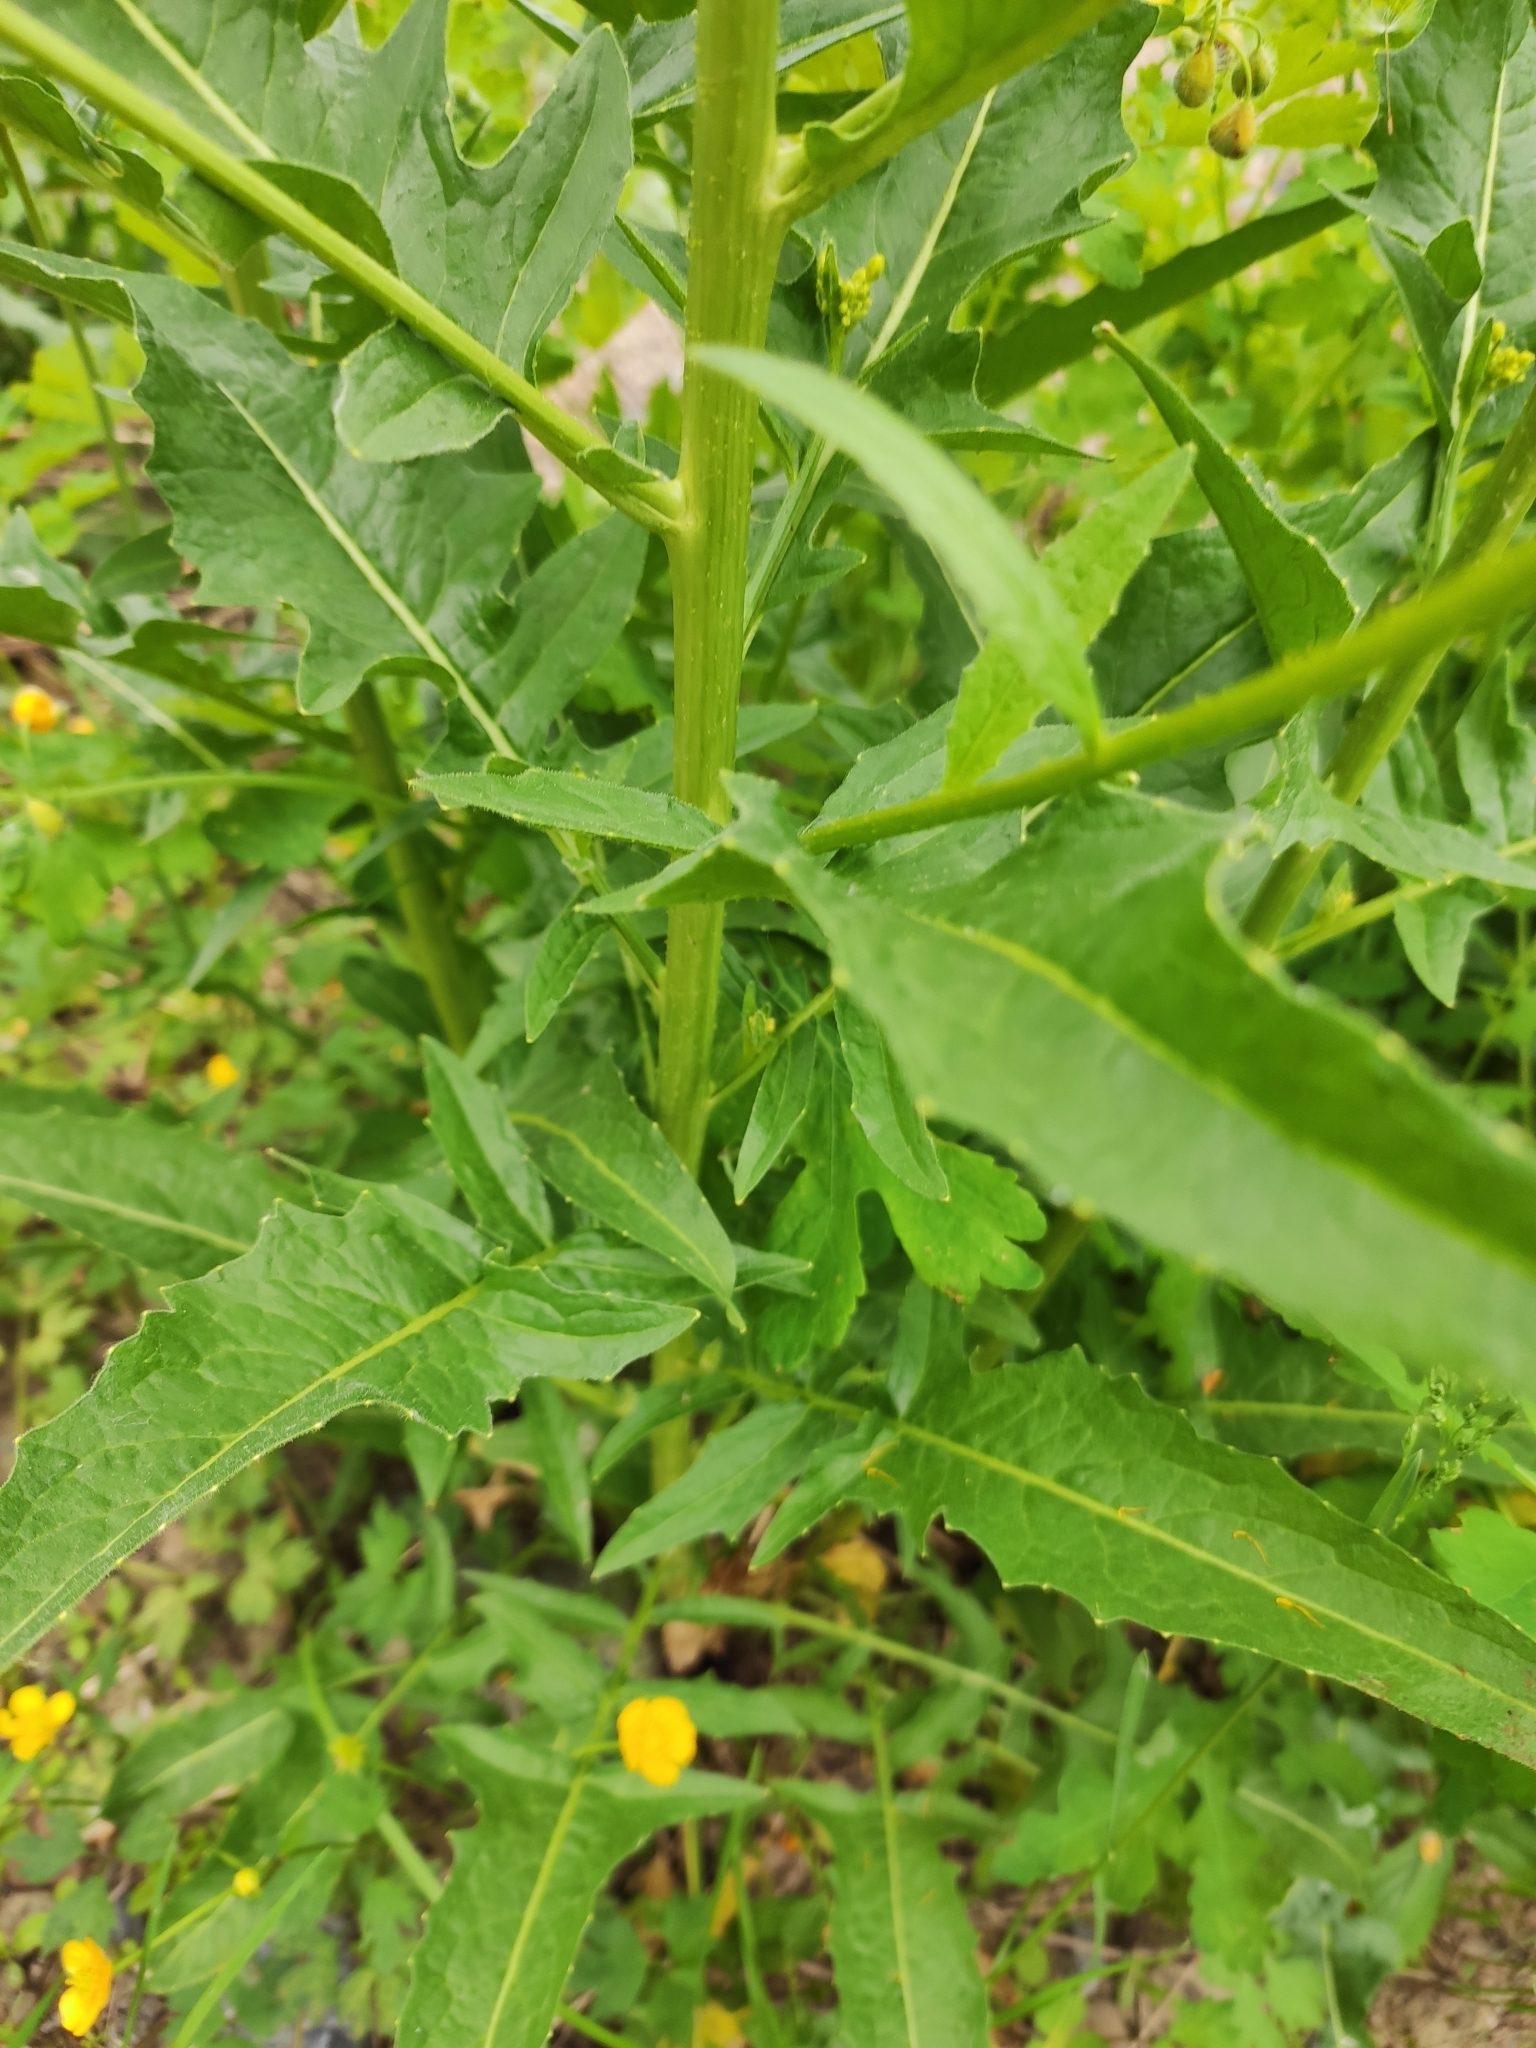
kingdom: Plantae
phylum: Tracheophyta
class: Magnoliopsida
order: Brassicales
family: Brassicaceae
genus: Bunias
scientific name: Bunias orientalis
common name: Warty-cabbage
